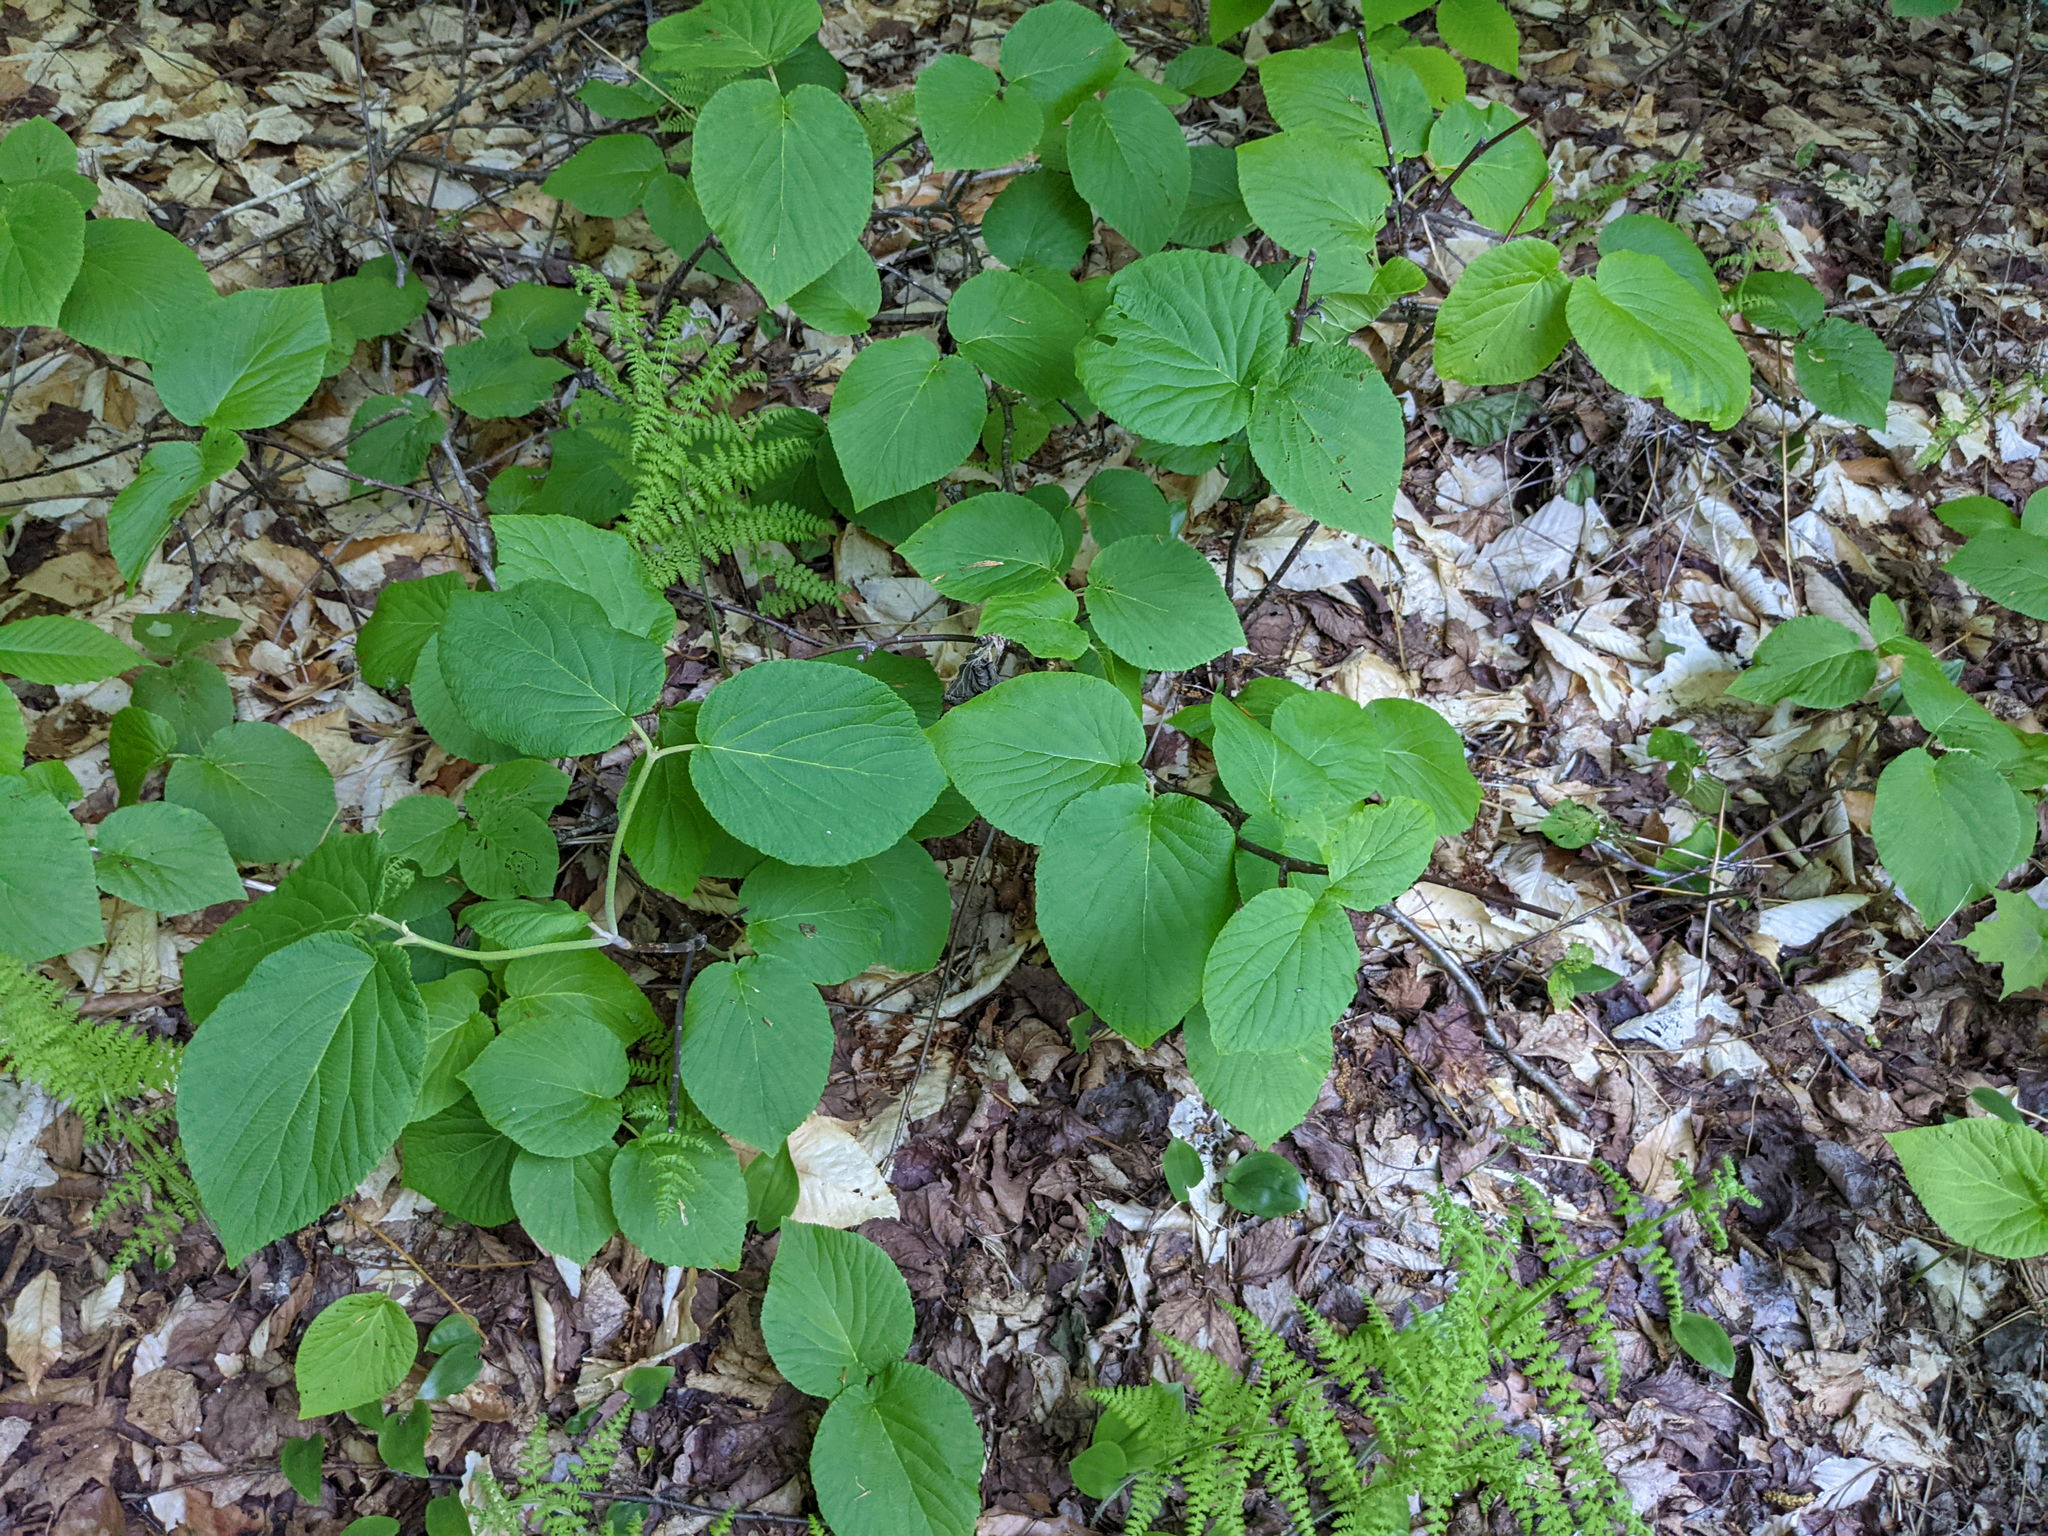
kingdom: Plantae
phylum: Tracheophyta
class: Magnoliopsida
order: Dipsacales
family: Viburnaceae
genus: Viburnum
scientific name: Viburnum lantanoides
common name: Hobblebush
